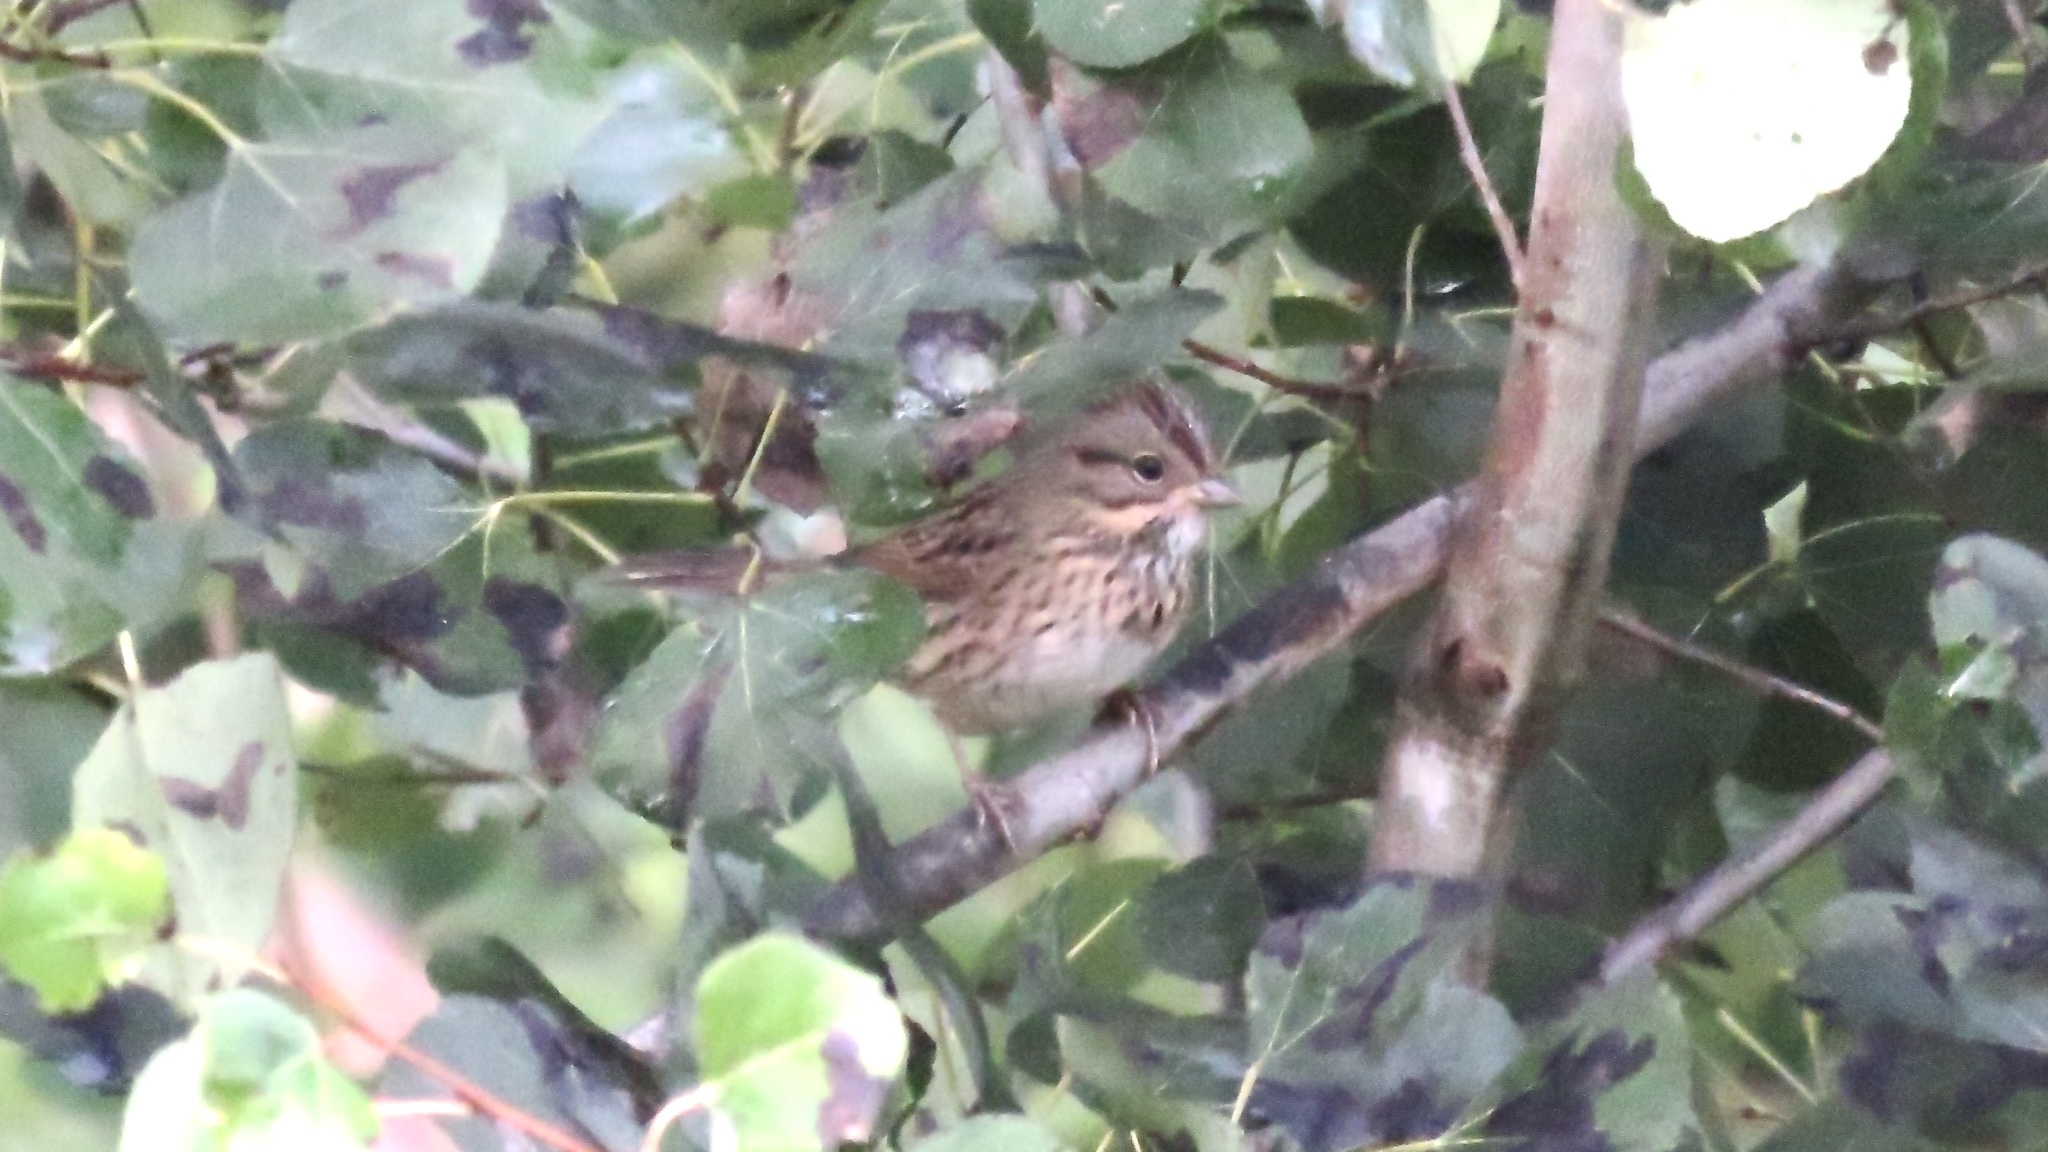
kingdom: Animalia
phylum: Chordata
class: Aves
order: Passeriformes
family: Passerellidae
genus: Melospiza
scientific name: Melospiza lincolnii
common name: Lincoln's sparrow
